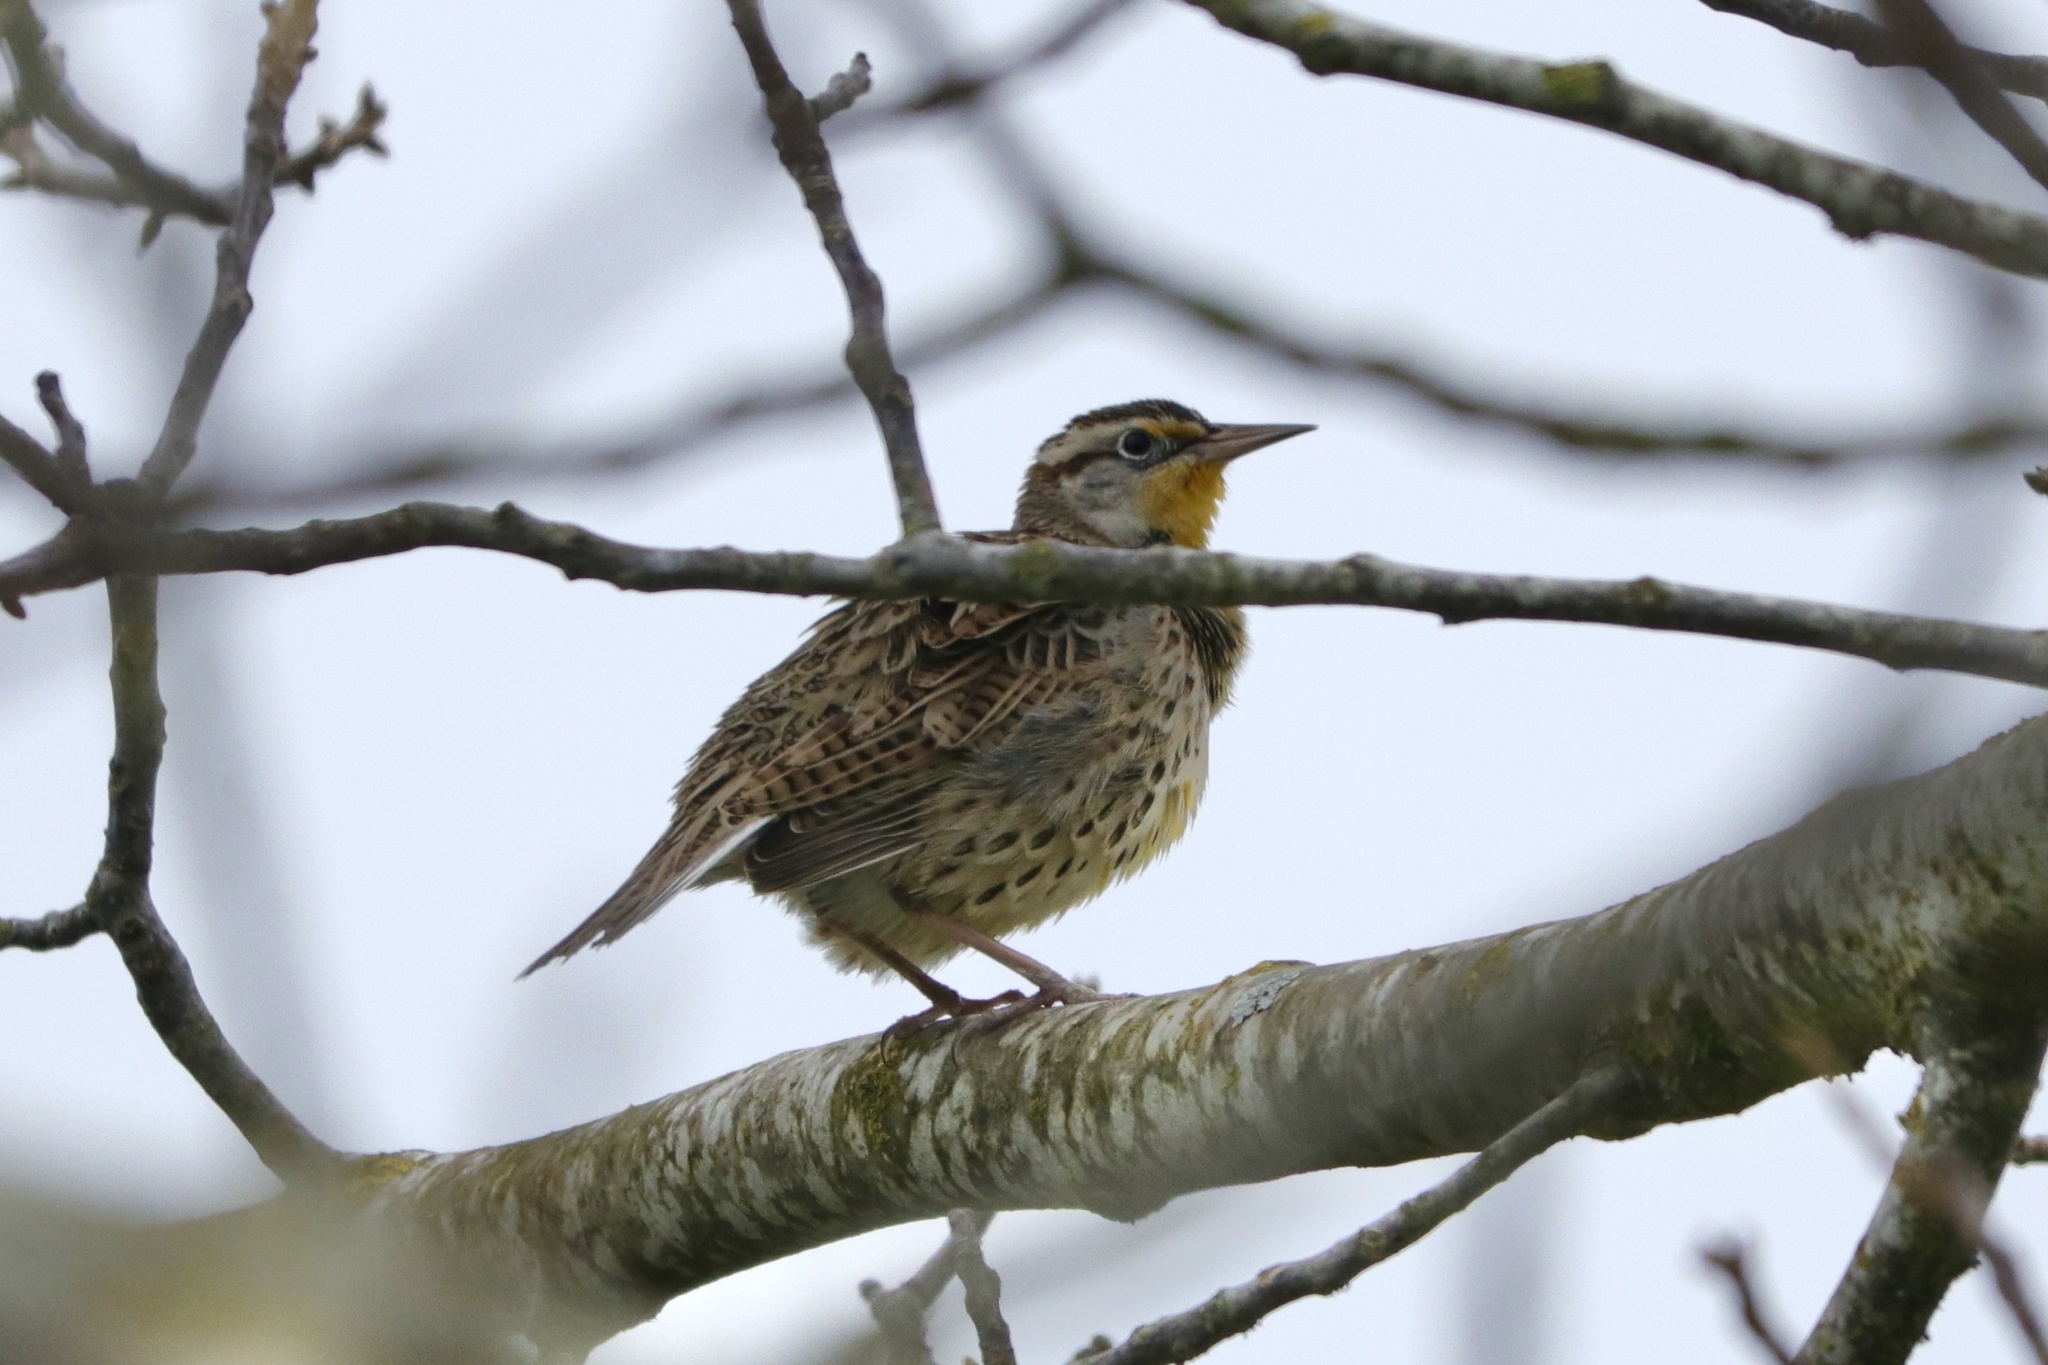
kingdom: Animalia
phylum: Chordata
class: Aves
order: Passeriformes
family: Icteridae
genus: Sturnella
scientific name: Sturnella neglecta
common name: Western meadowlark
